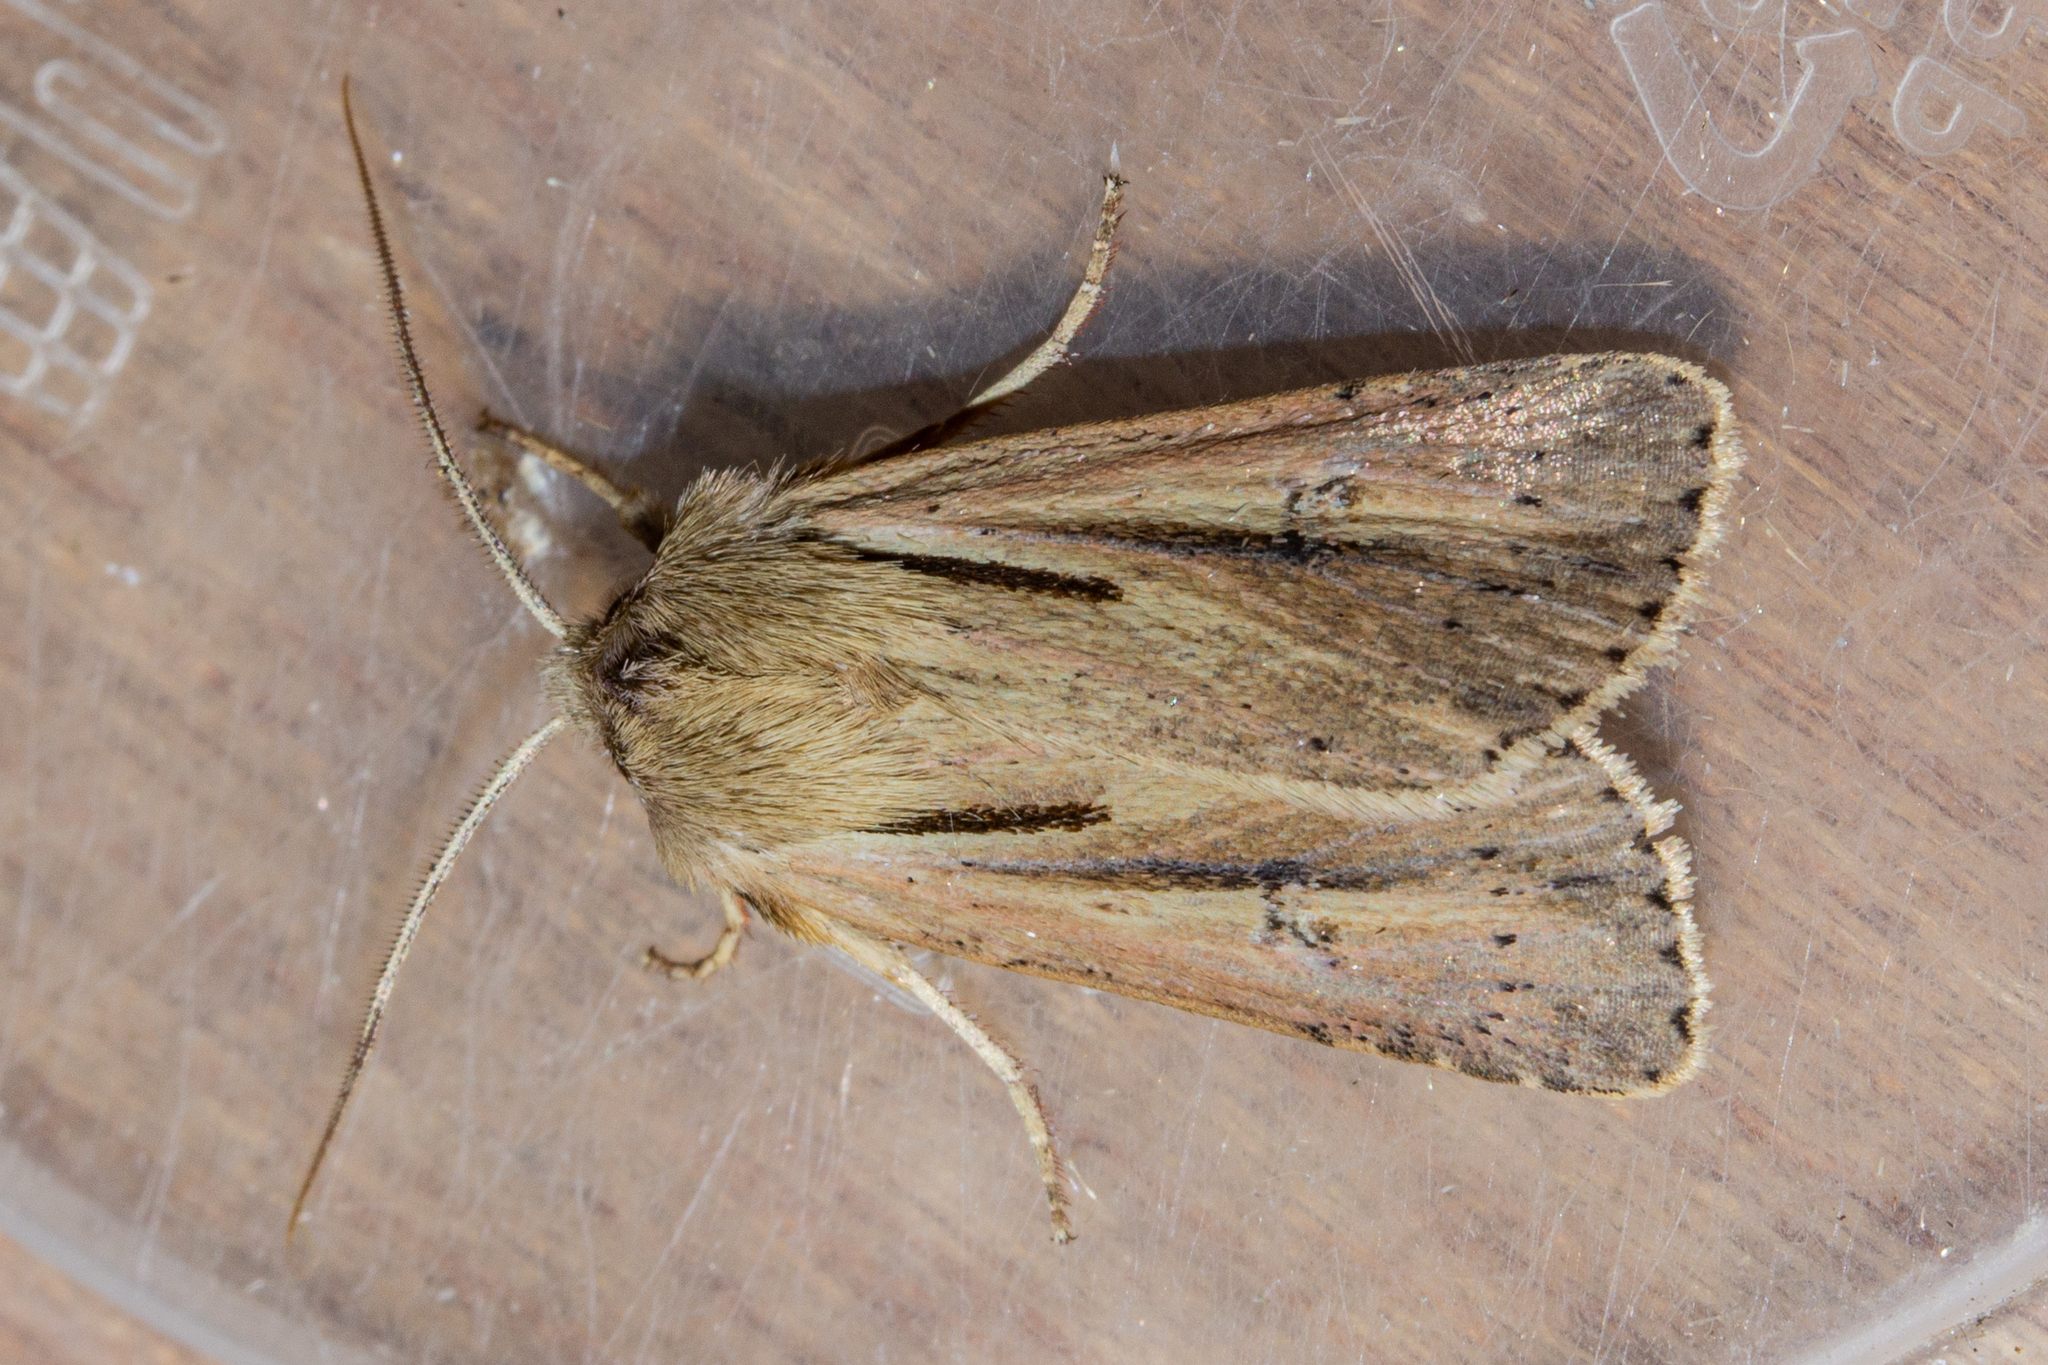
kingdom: Animalia
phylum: Arthropoda
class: Insecta
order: Lepidoptera
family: Noctuidae
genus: Ichneutica
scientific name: Ichneutica propria
